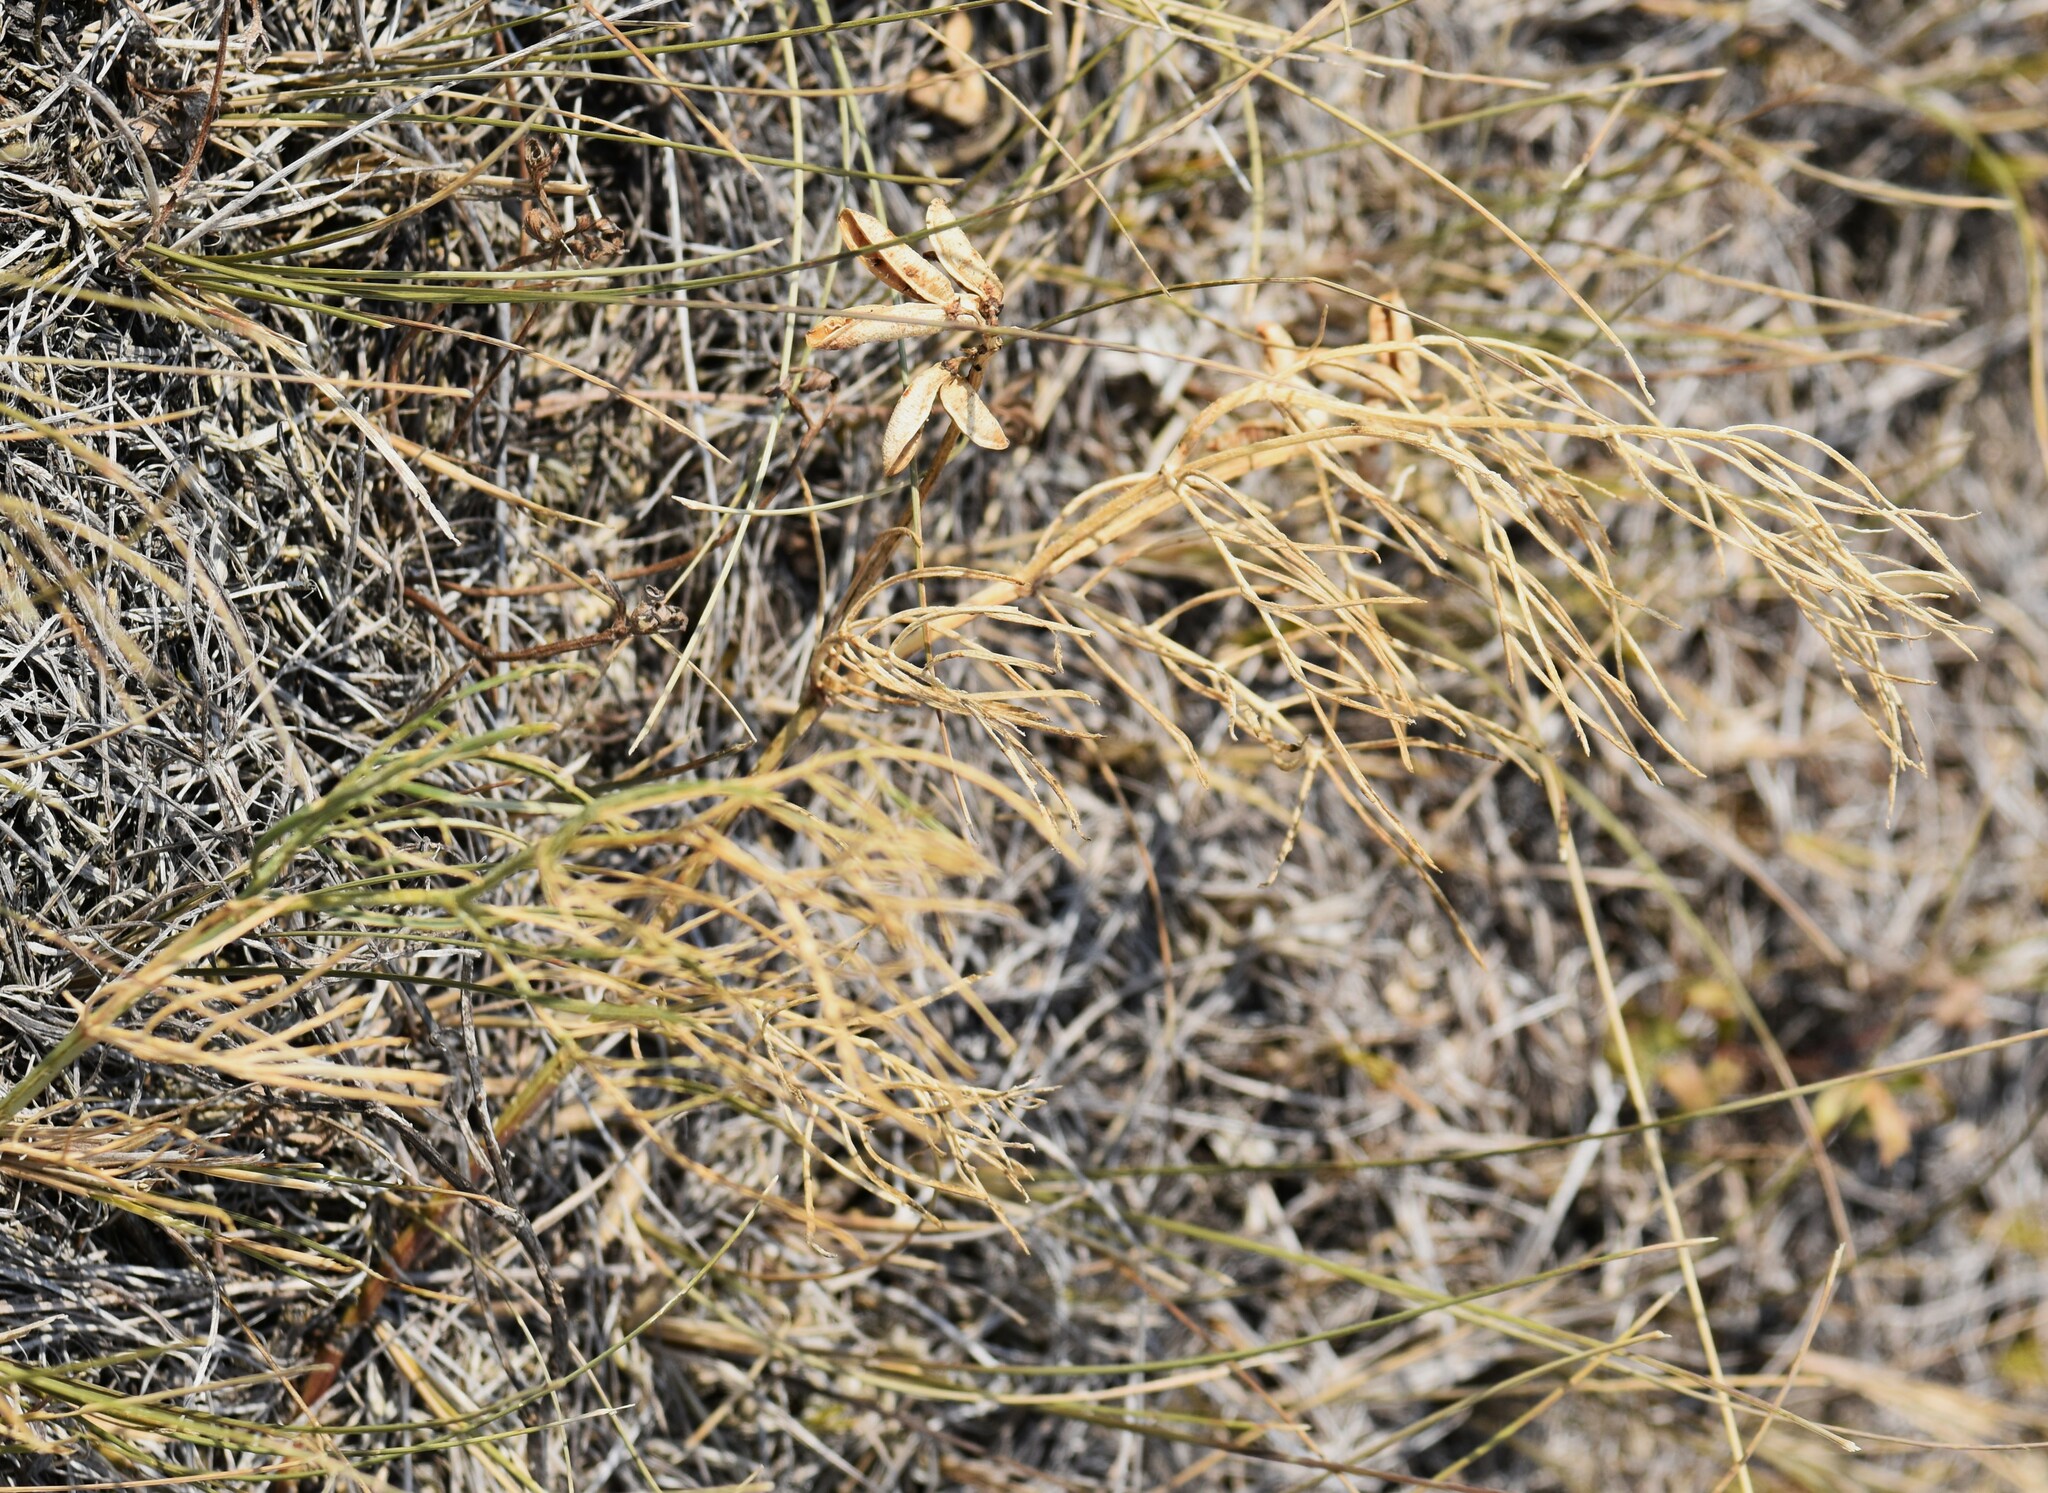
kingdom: Plantae
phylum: Tracheophyta
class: Magnoliopsida
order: Fabales
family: Fabaceae
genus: Astragalus
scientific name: Astragalus pectinatus
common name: Tine-leaf milk-vetch
